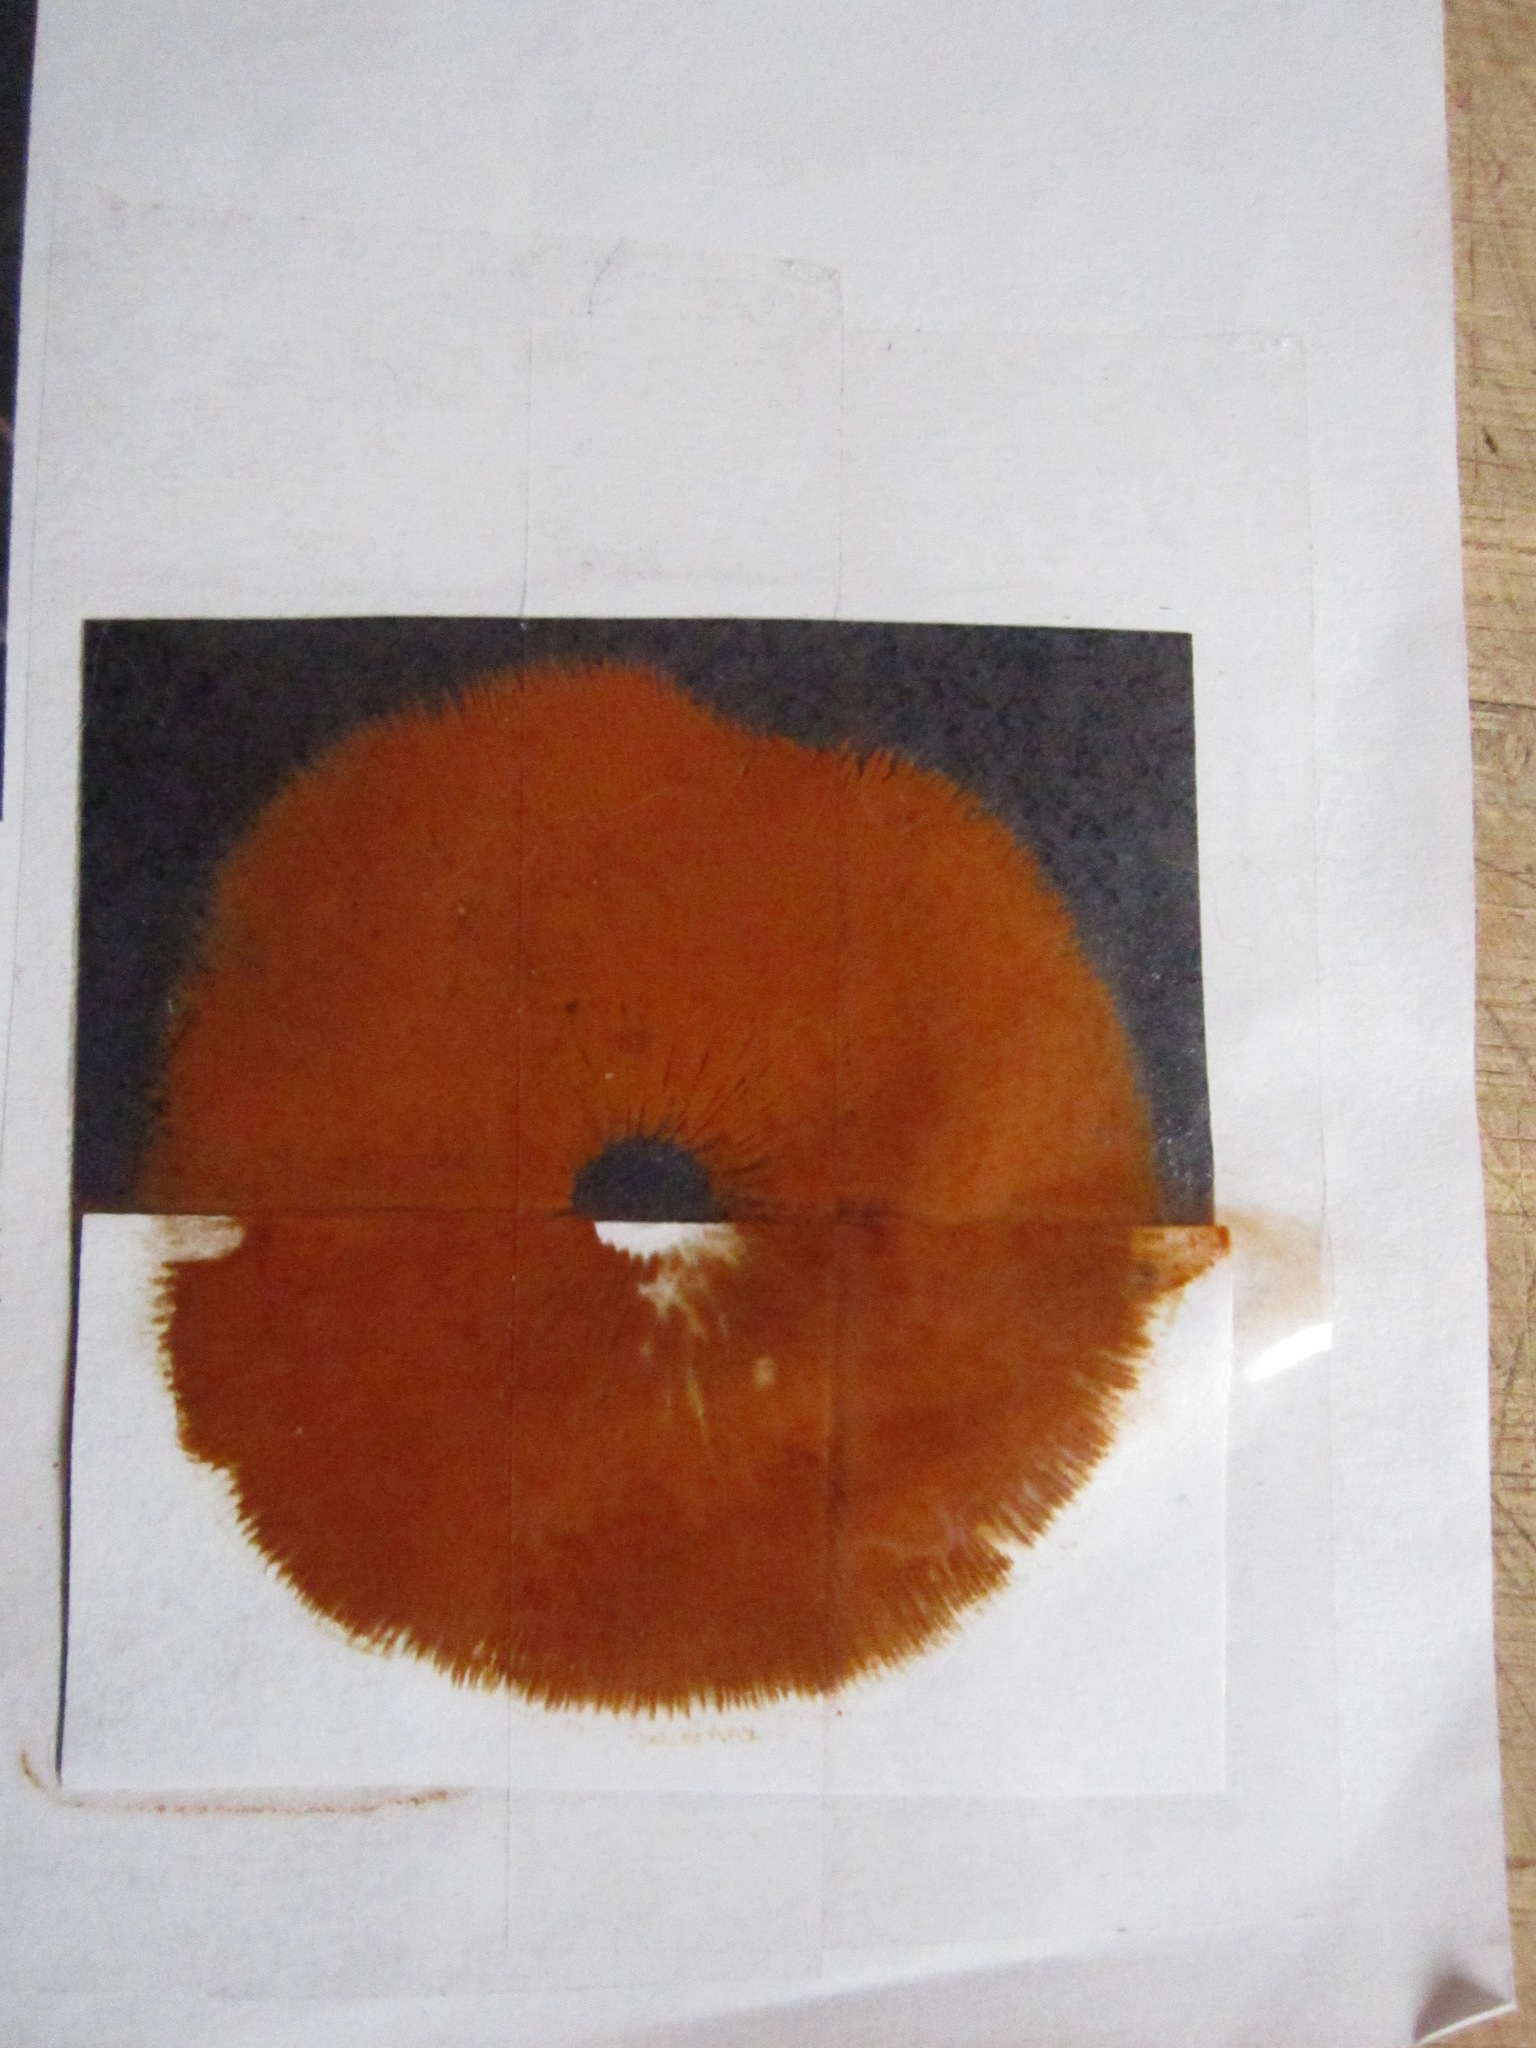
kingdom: Fungi
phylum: Basidiomycota
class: Agaricomycetes
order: Agaricales
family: Hymenogastraceae
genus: Gymnopilus
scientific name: Gymnopilus thiersii
